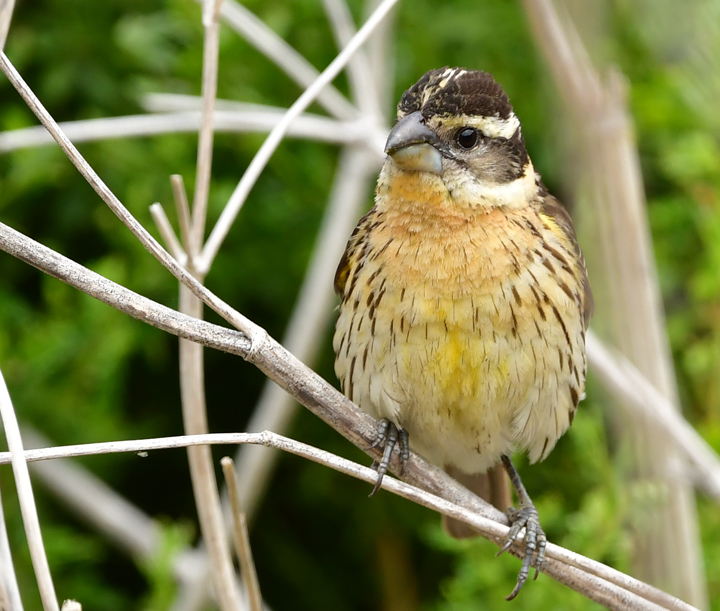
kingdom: Animalia
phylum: Chordata
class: Aves
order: Passeriformes
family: Cardinalidae
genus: Pheucticus
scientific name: Pheucticus melanocephalus
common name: Black-headed grosbeak
